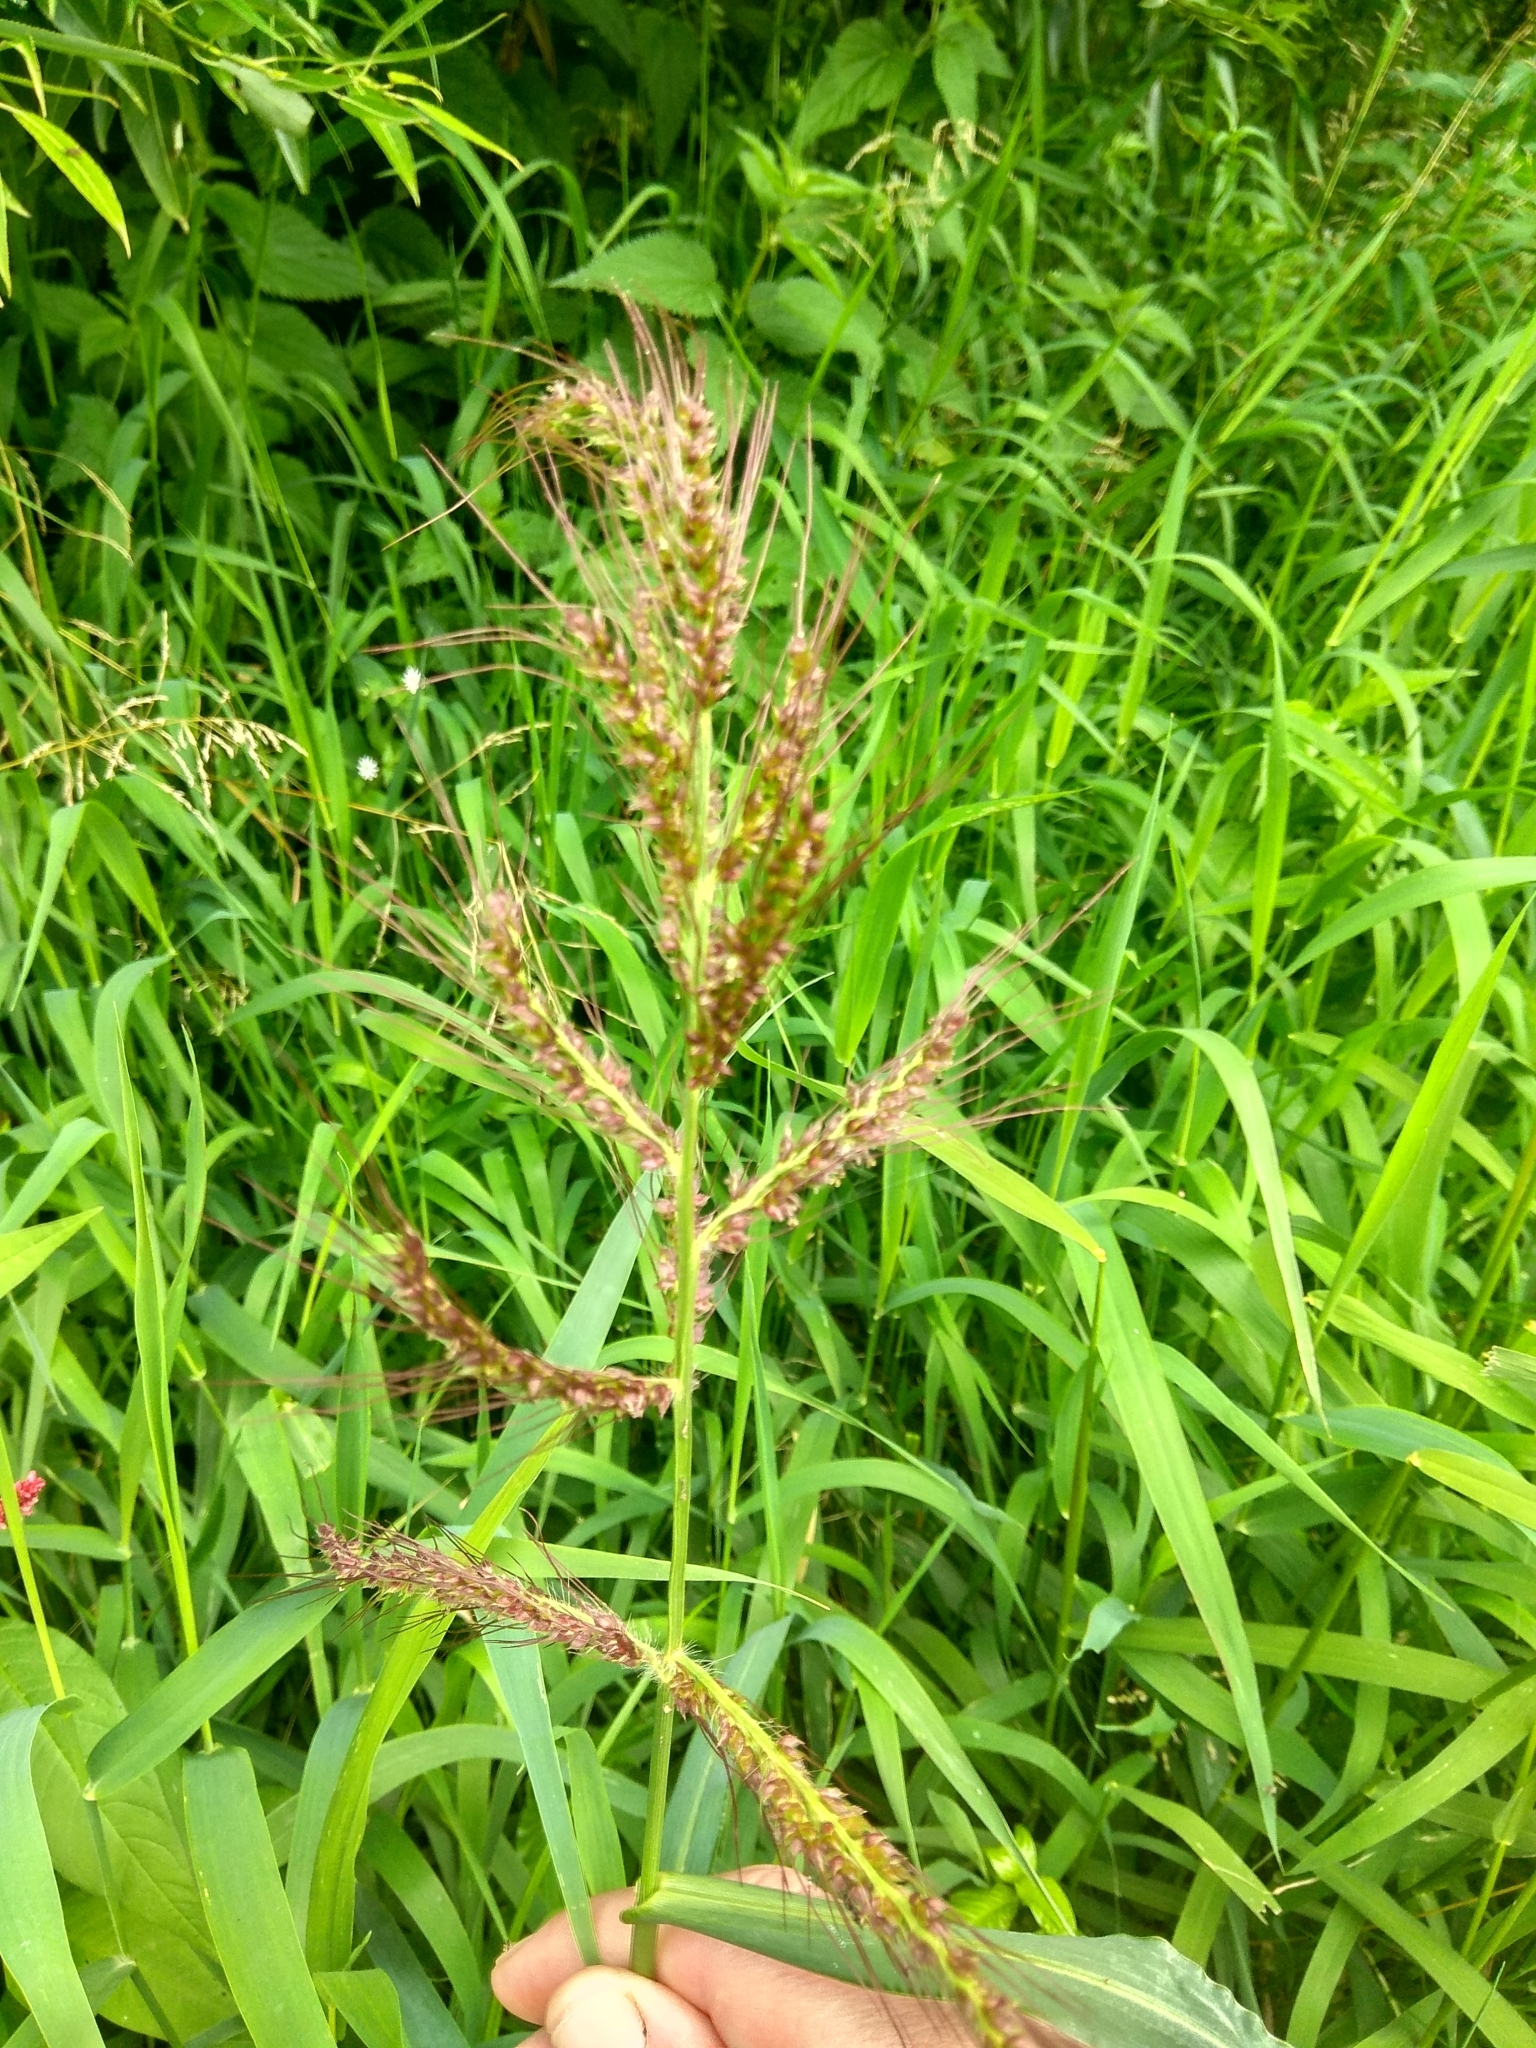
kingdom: Plantae
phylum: Tracheophyta
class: Liliopsida
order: Poales
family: Poaceae
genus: Echinochloa
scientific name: Echinochloa crus-galli
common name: Cockspur
